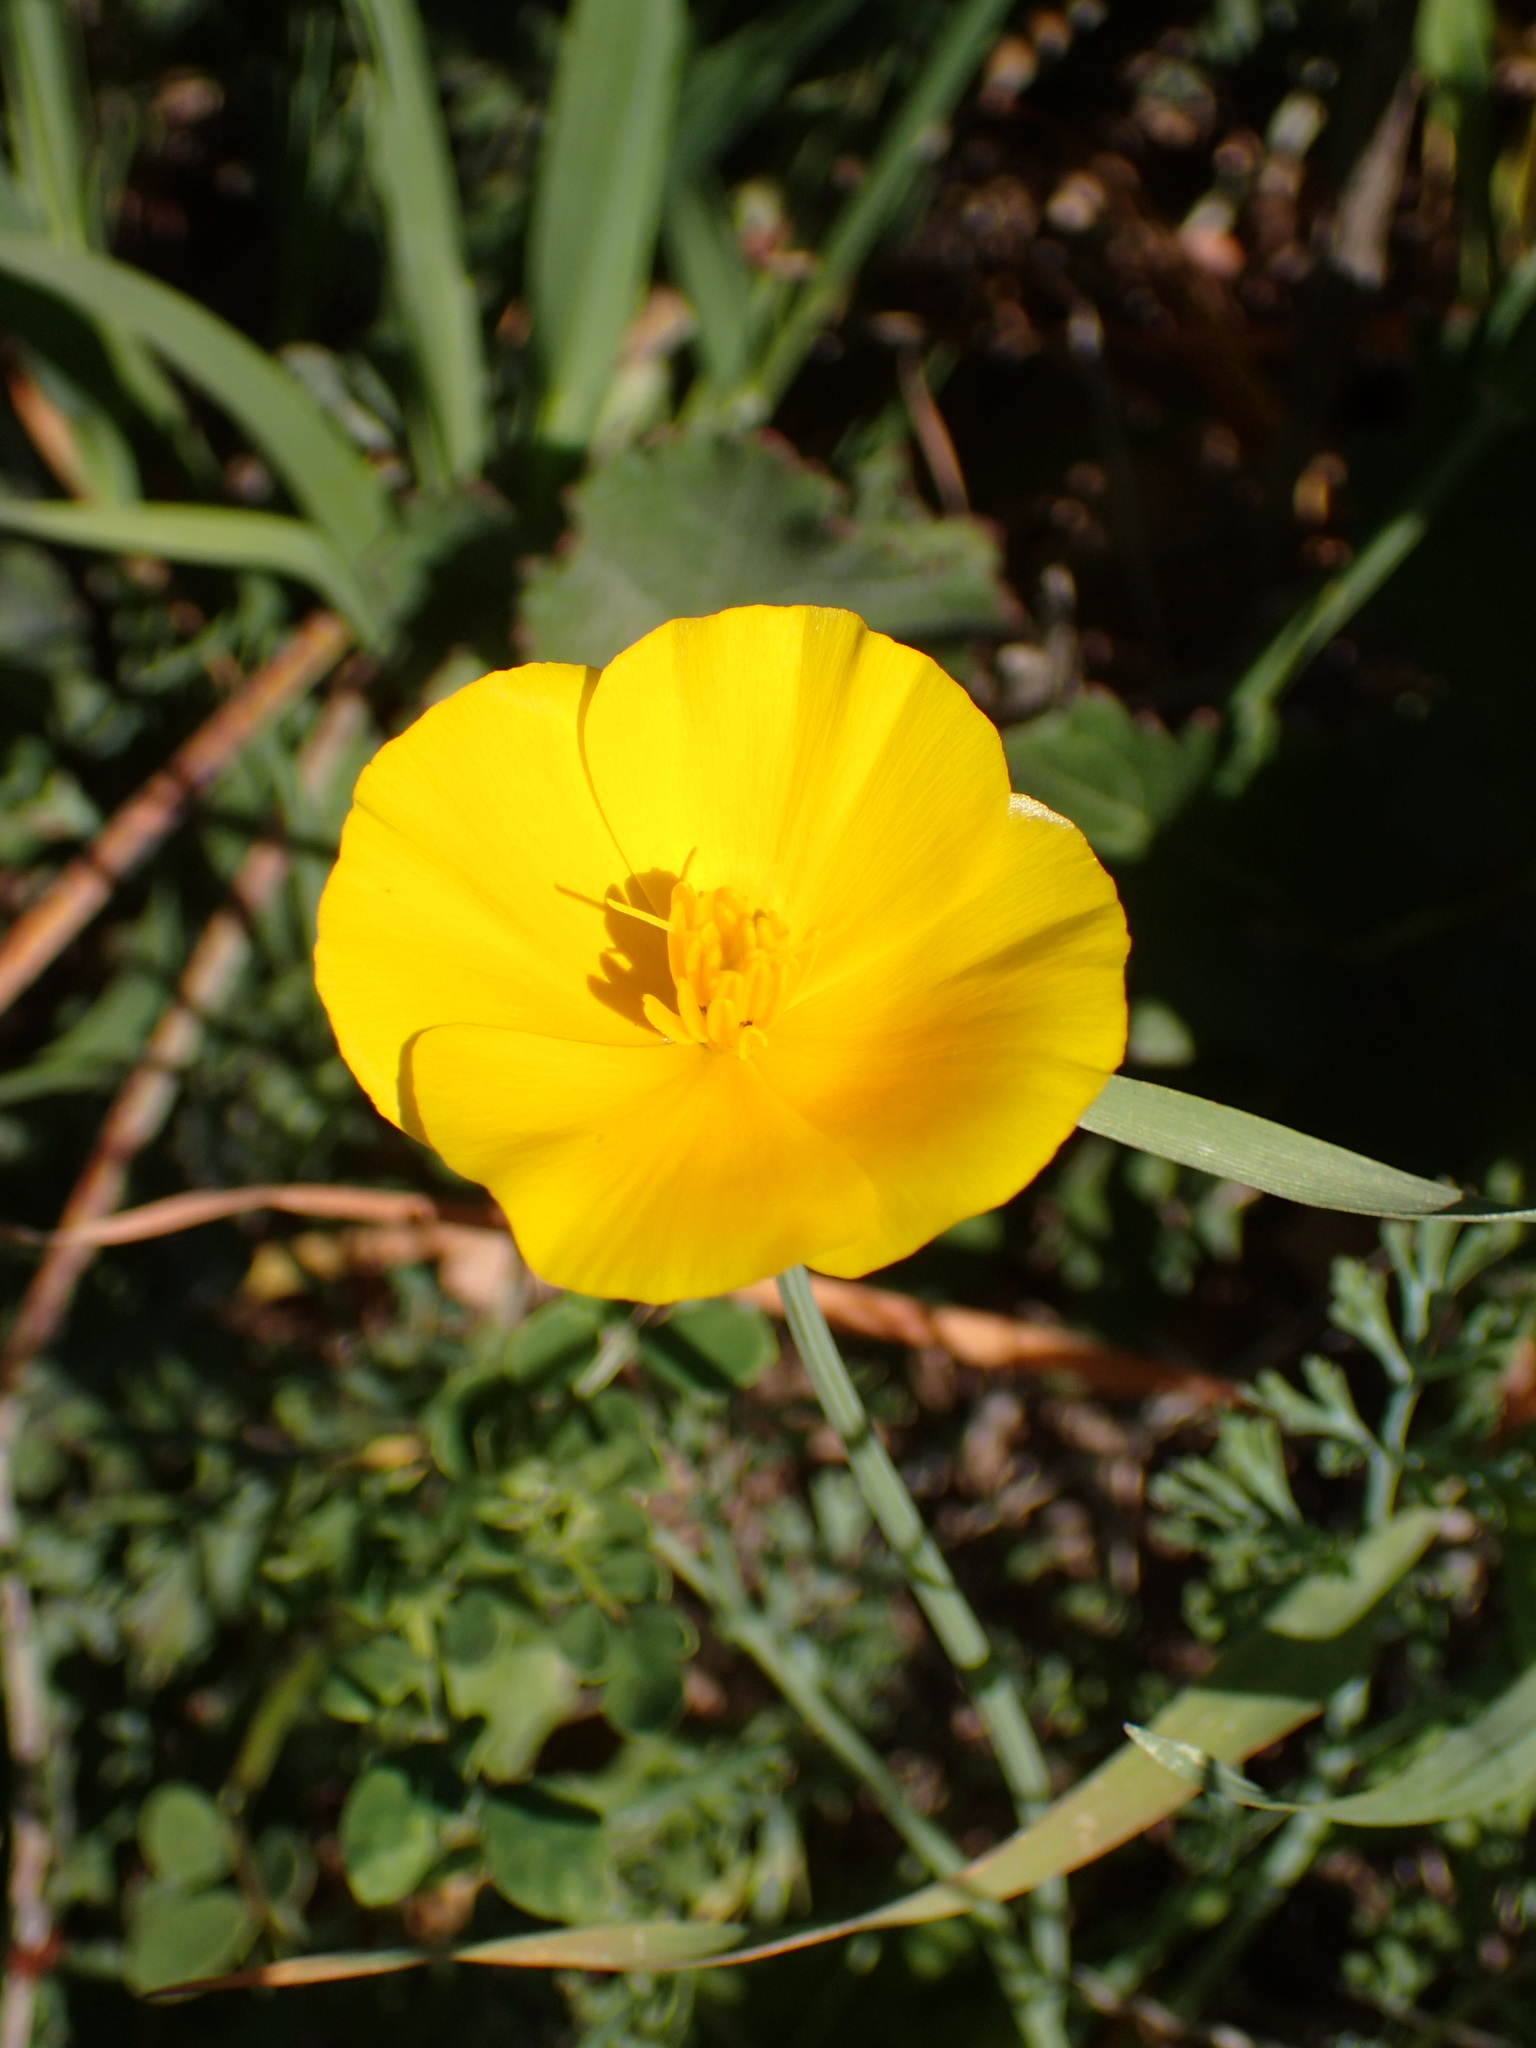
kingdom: Plantae
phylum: Tracheophyta
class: Magnoliopsida
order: Ranunculales
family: Papaveraceae
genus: Eschscholzia
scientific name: Eschscholzia caespitosa
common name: Tufted california-poppy
